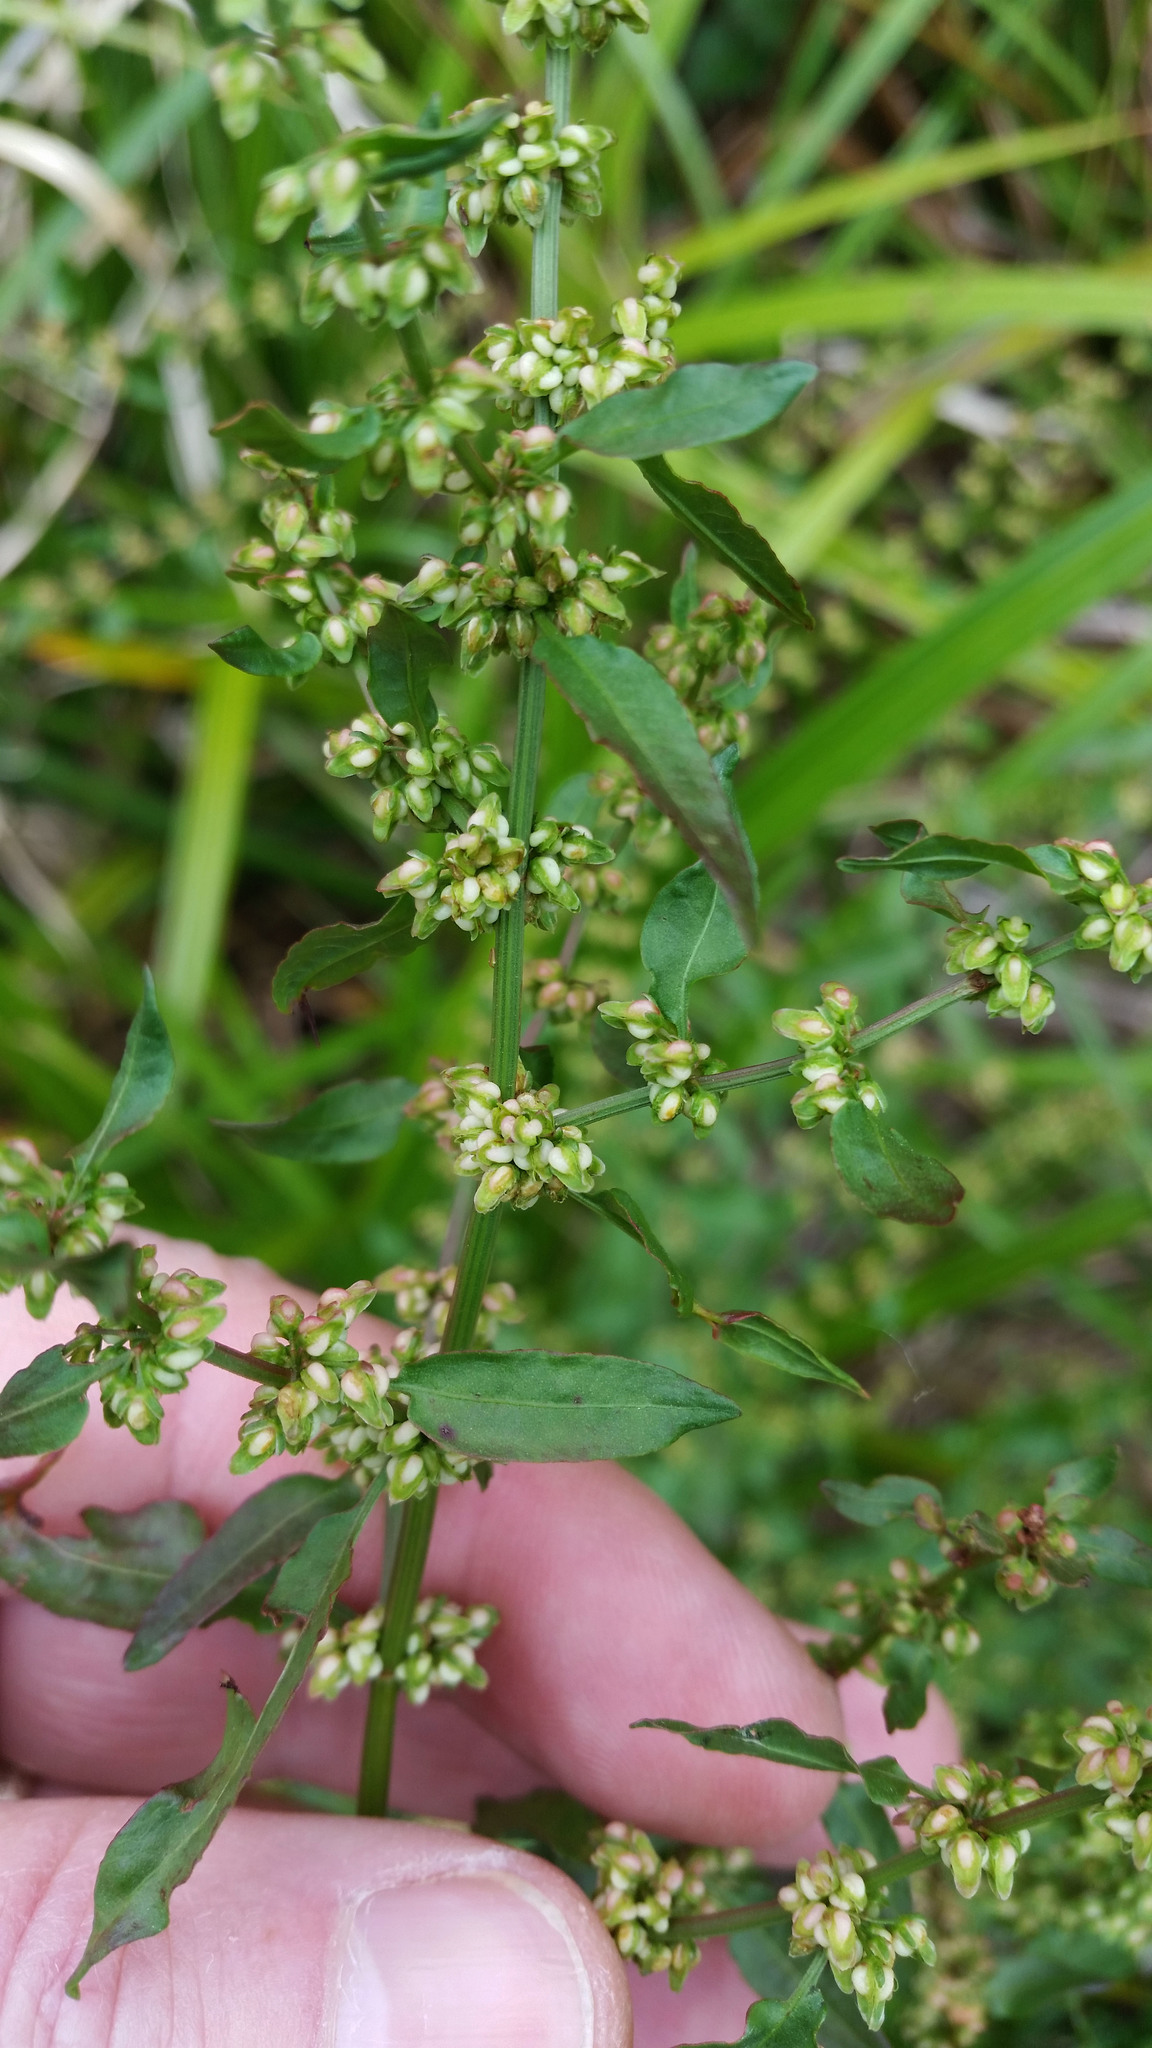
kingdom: Plantae
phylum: Tracheophyta
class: Magnoliopsida
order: Caryophyllales
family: Polygonaceae
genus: Rumex
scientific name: Rumex conglomeratus
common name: Clustered dock
